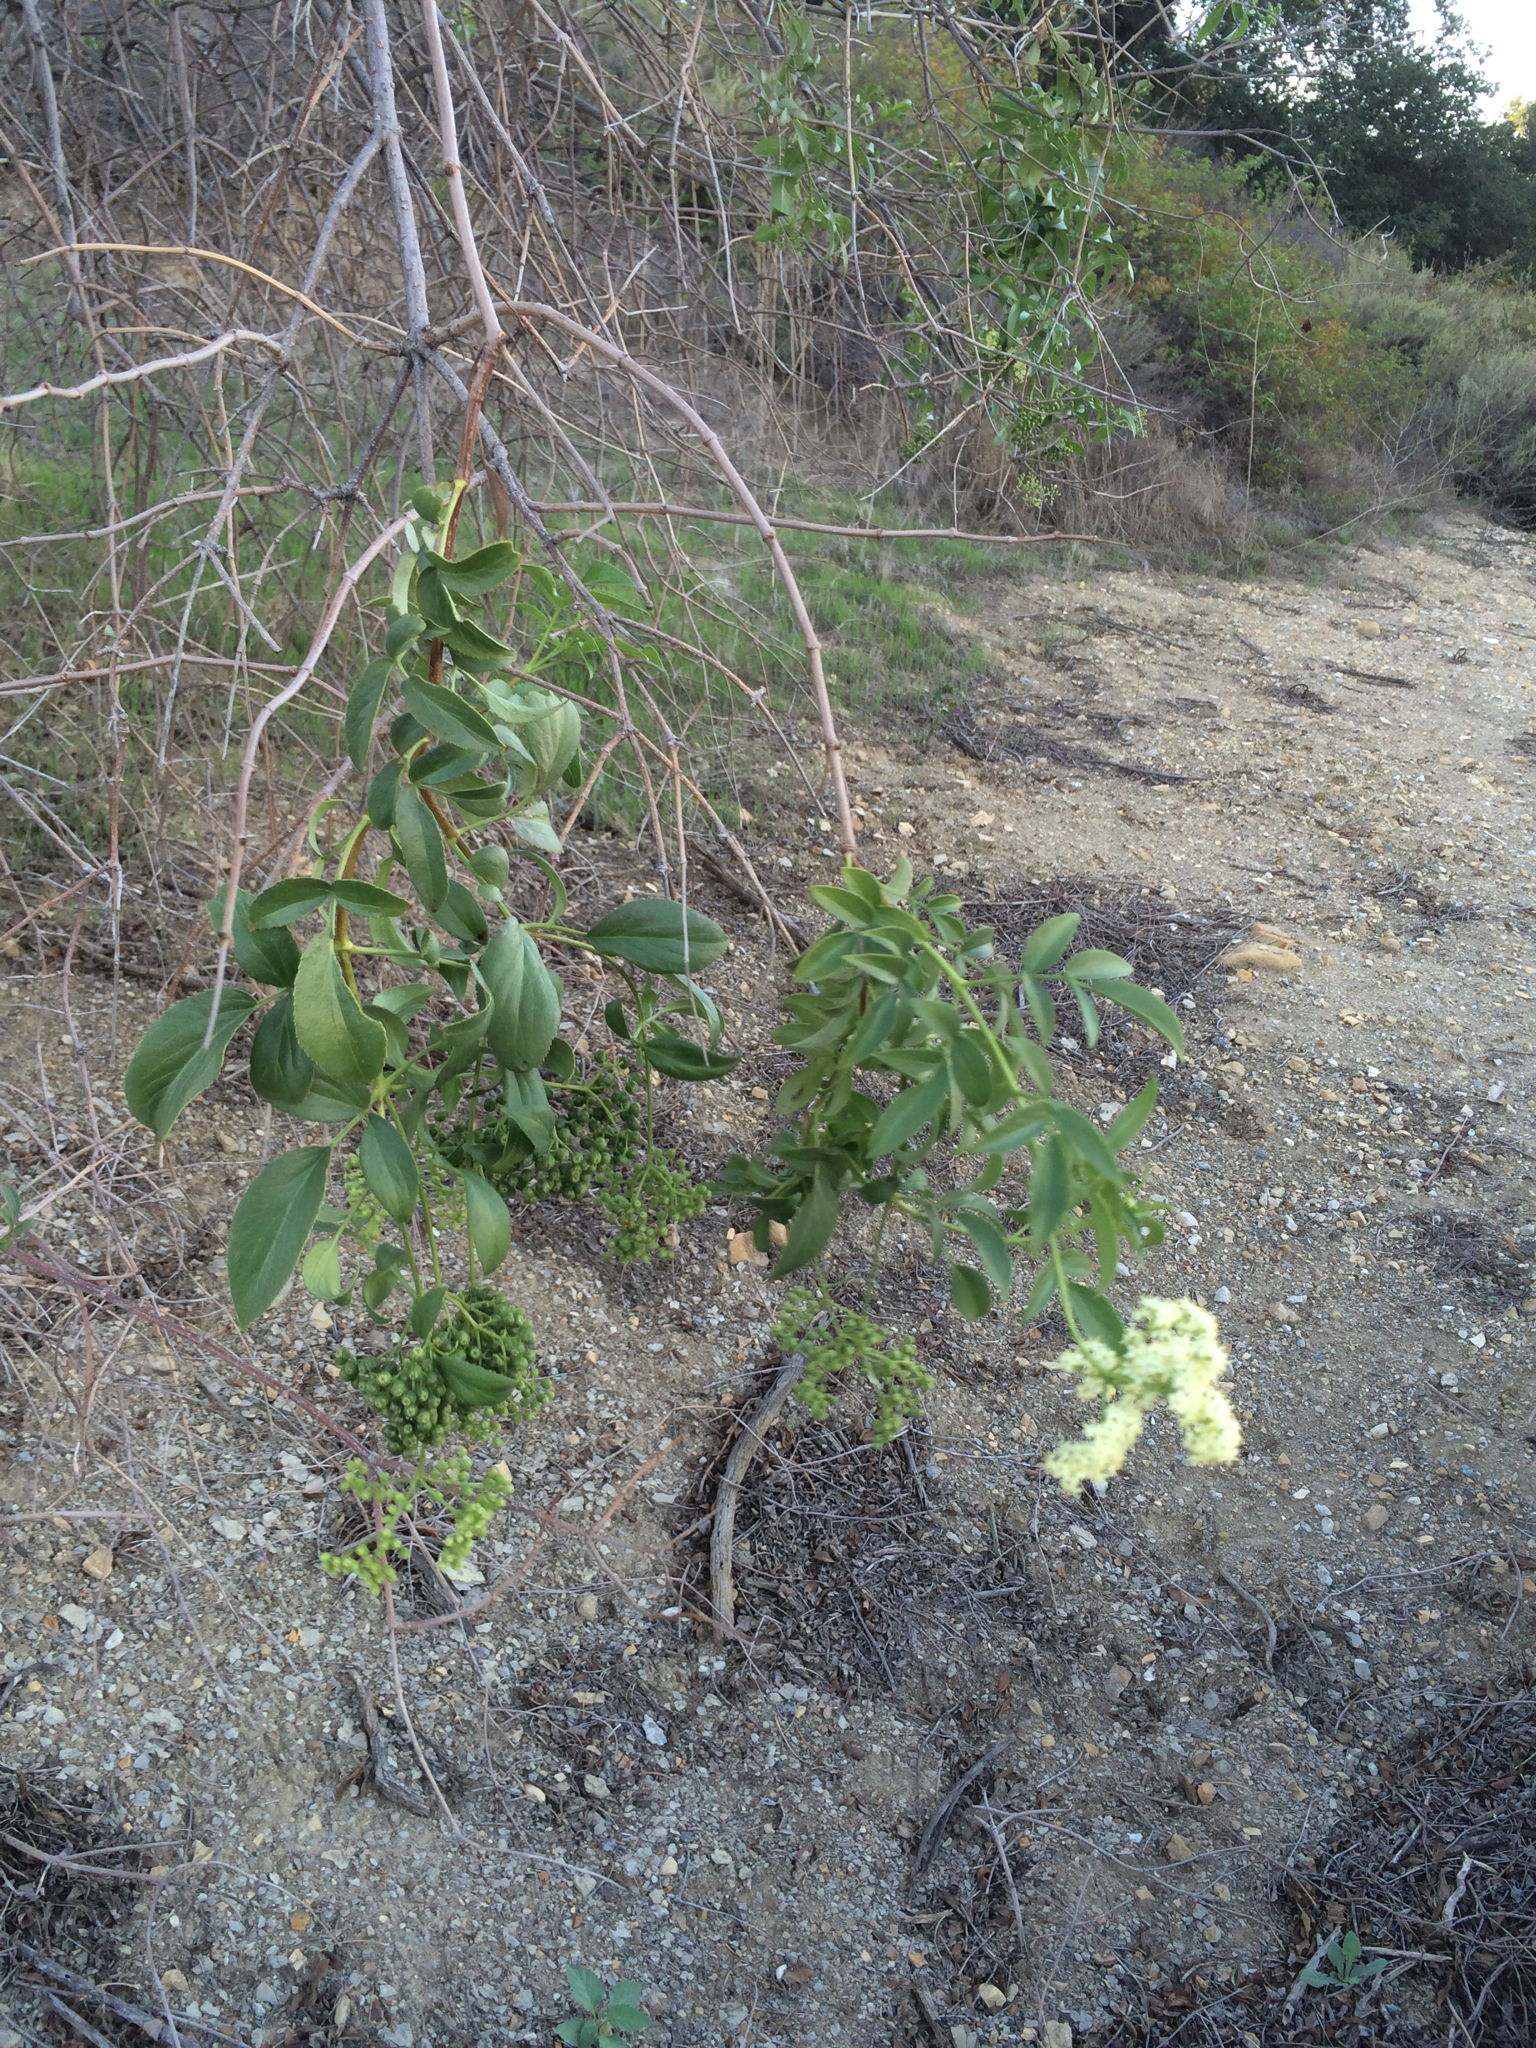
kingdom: Plantae
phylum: Tracheophyta
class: Magnoliopsida
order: Dipsacales
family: Viburnaceae
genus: Sambucus
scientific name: Sambucus cerulea
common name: Blue elder
